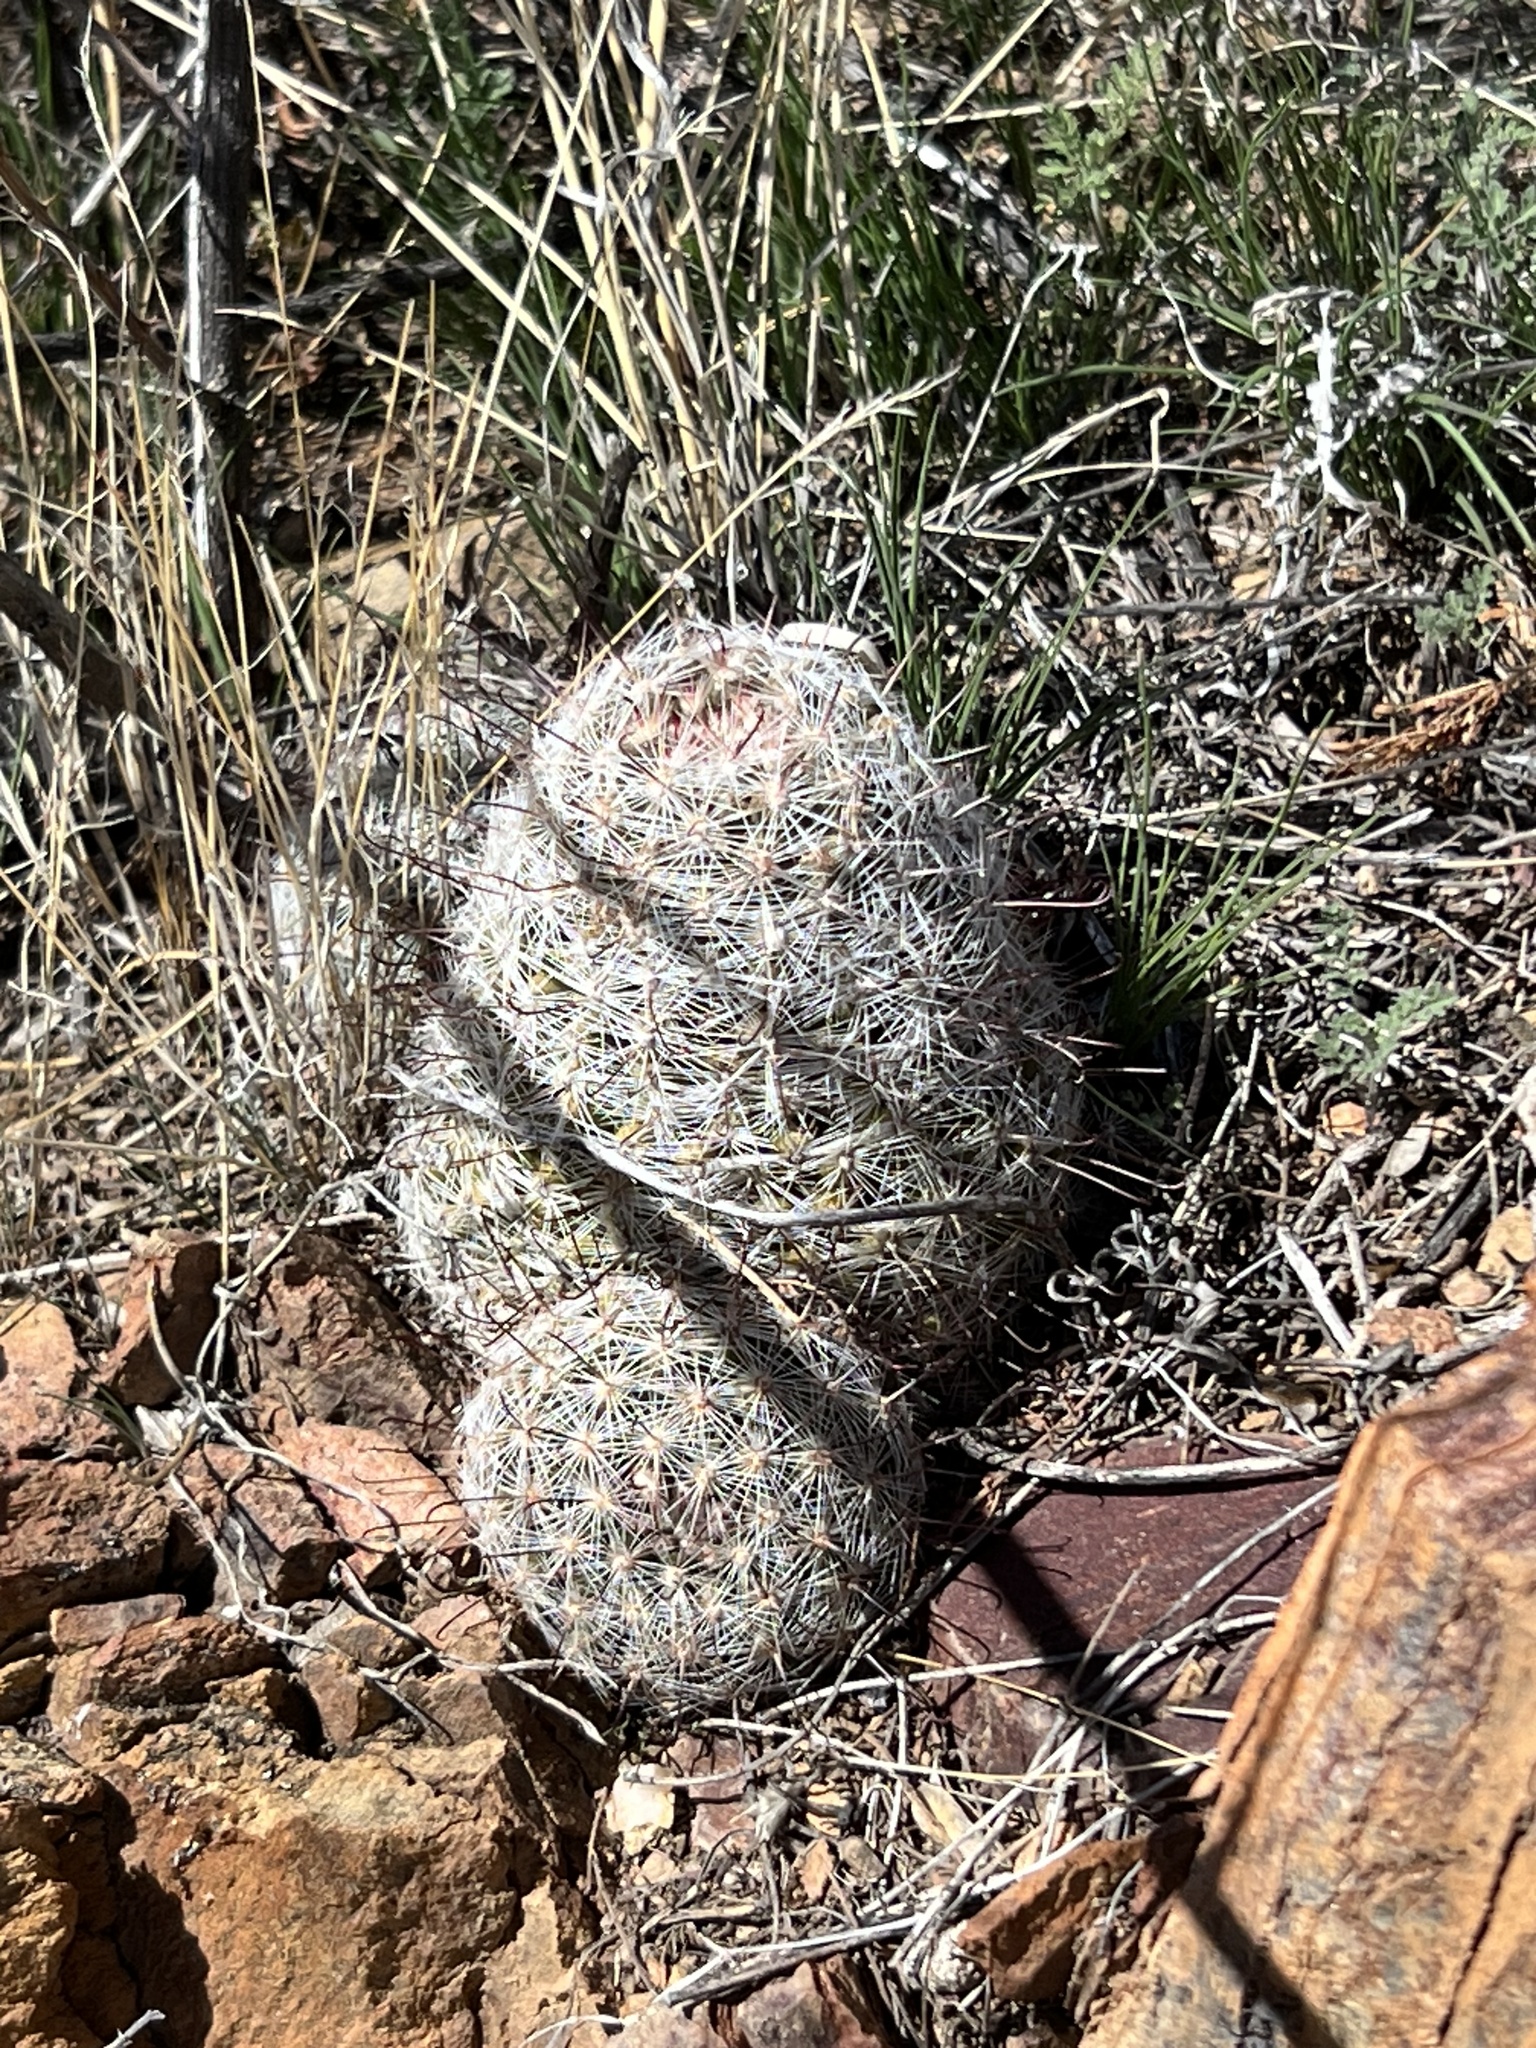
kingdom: Plantae
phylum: Tracheophyta
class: Magnoliopsida
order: Caryophyllales
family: Cactaceae
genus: Cochemiea
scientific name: Cochemiea grahamii
